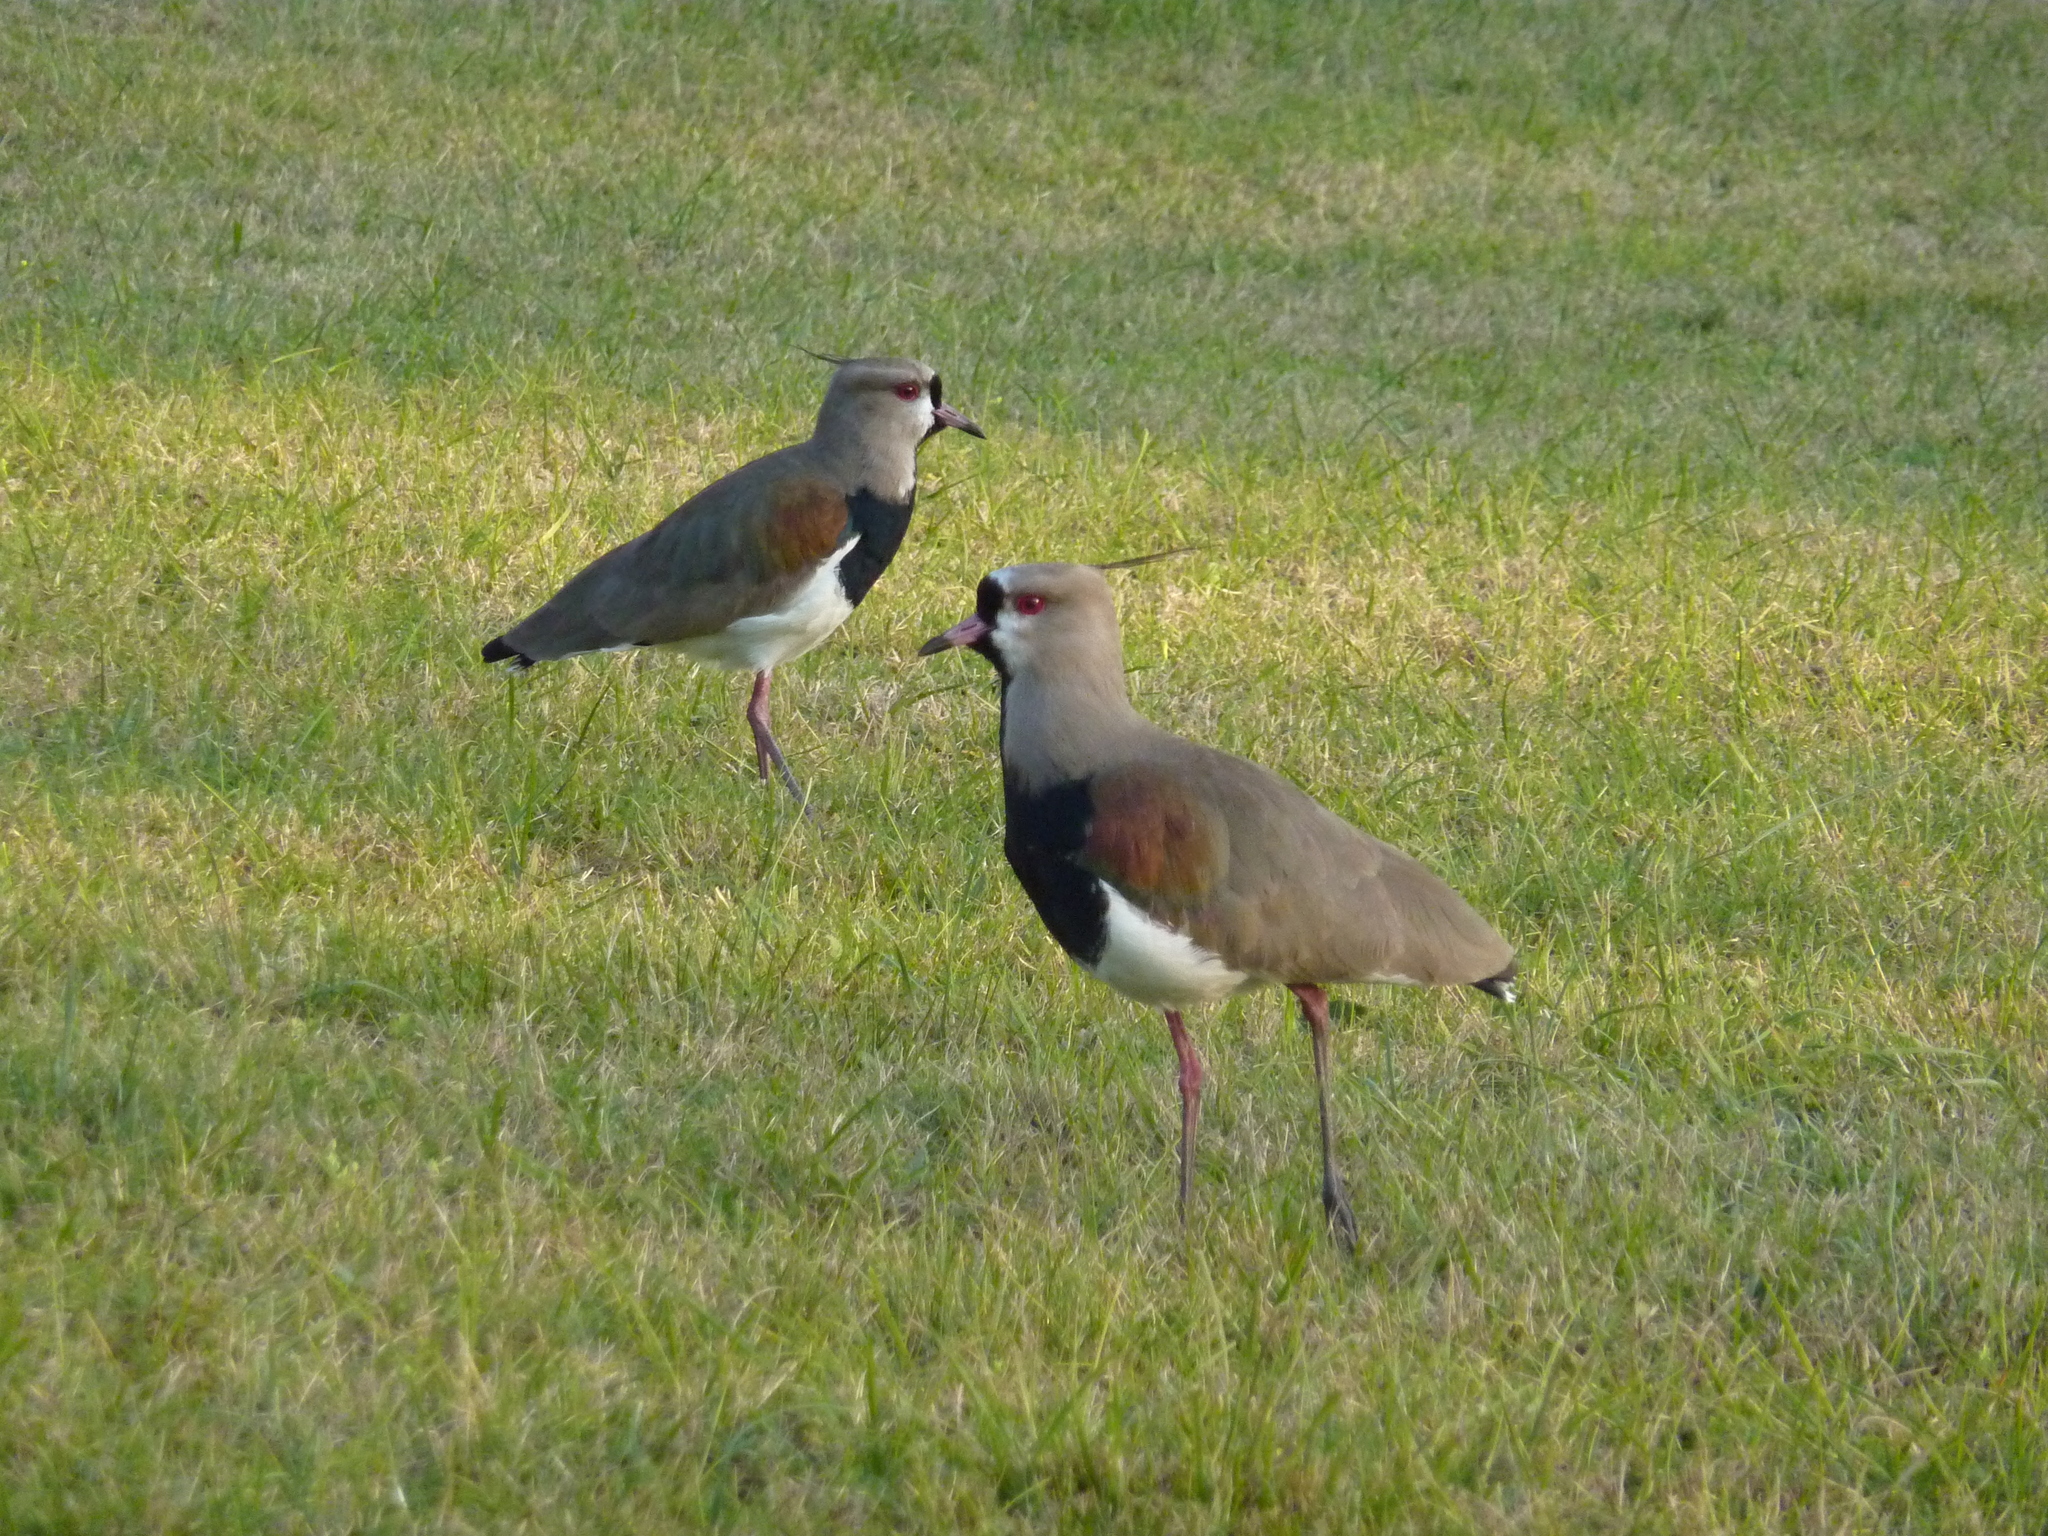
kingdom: Animalia
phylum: Chordata
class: Aves
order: Charadriiformes
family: Charadriidae
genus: Vanellus
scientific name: Vanellus chilensis
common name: Southern lapwing
